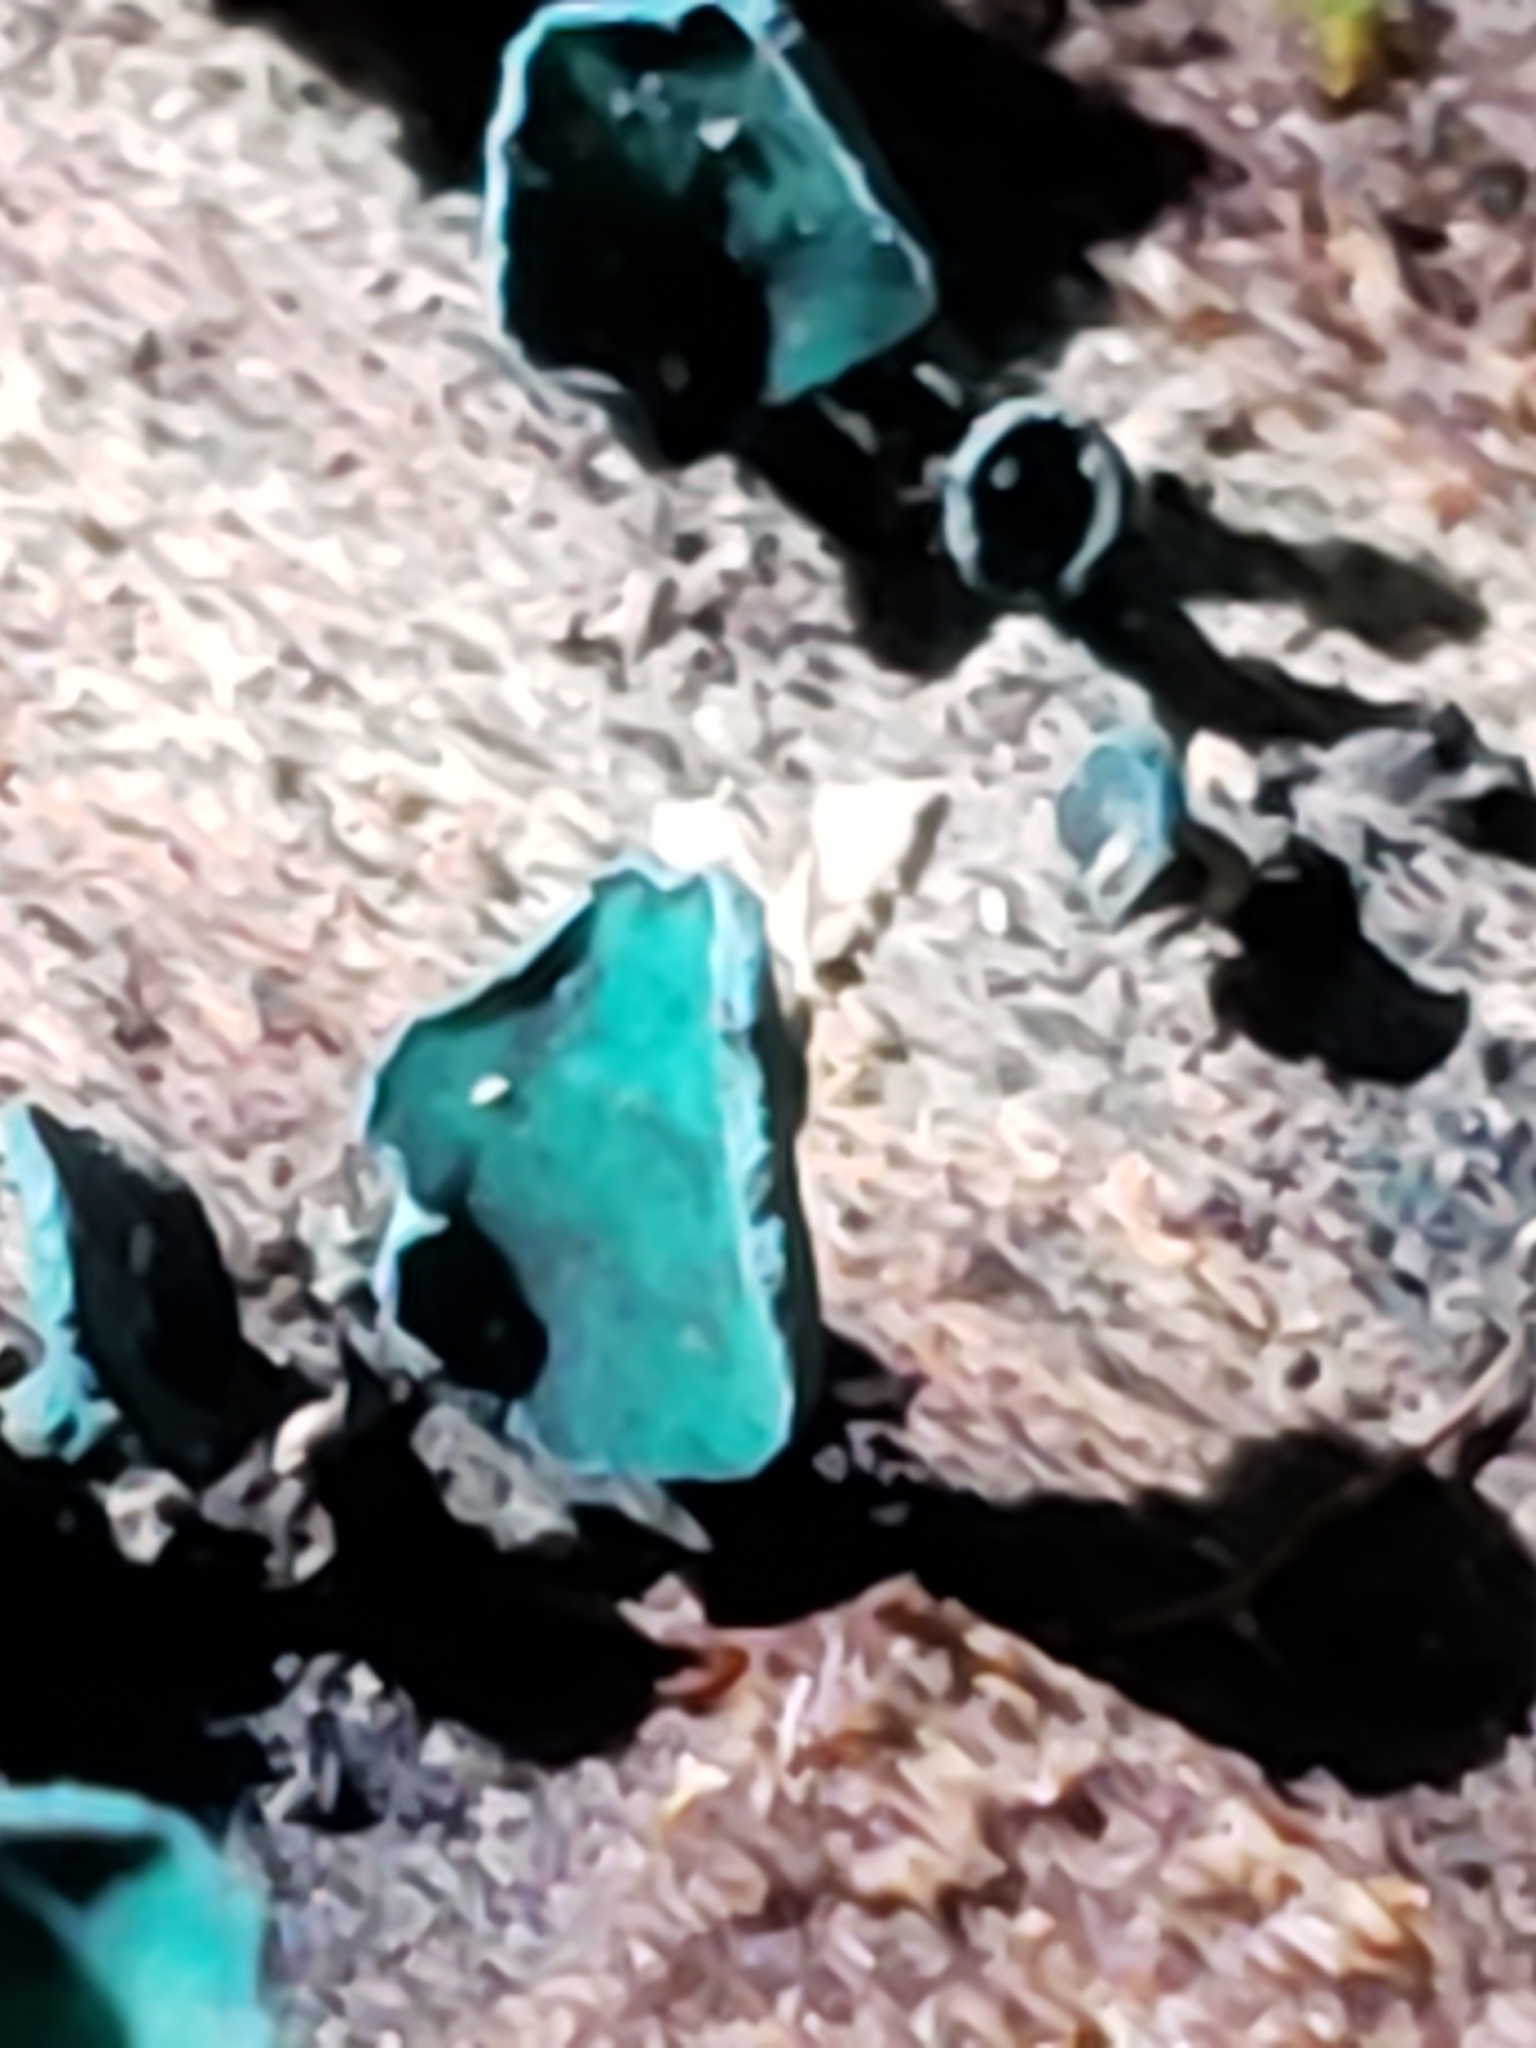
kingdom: Fungi
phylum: Ascomycota
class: Leotiomycetes
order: Helotiales
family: Chlorociboriaceae
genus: Chlorociboria
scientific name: Chlorociboria aeruginascens
